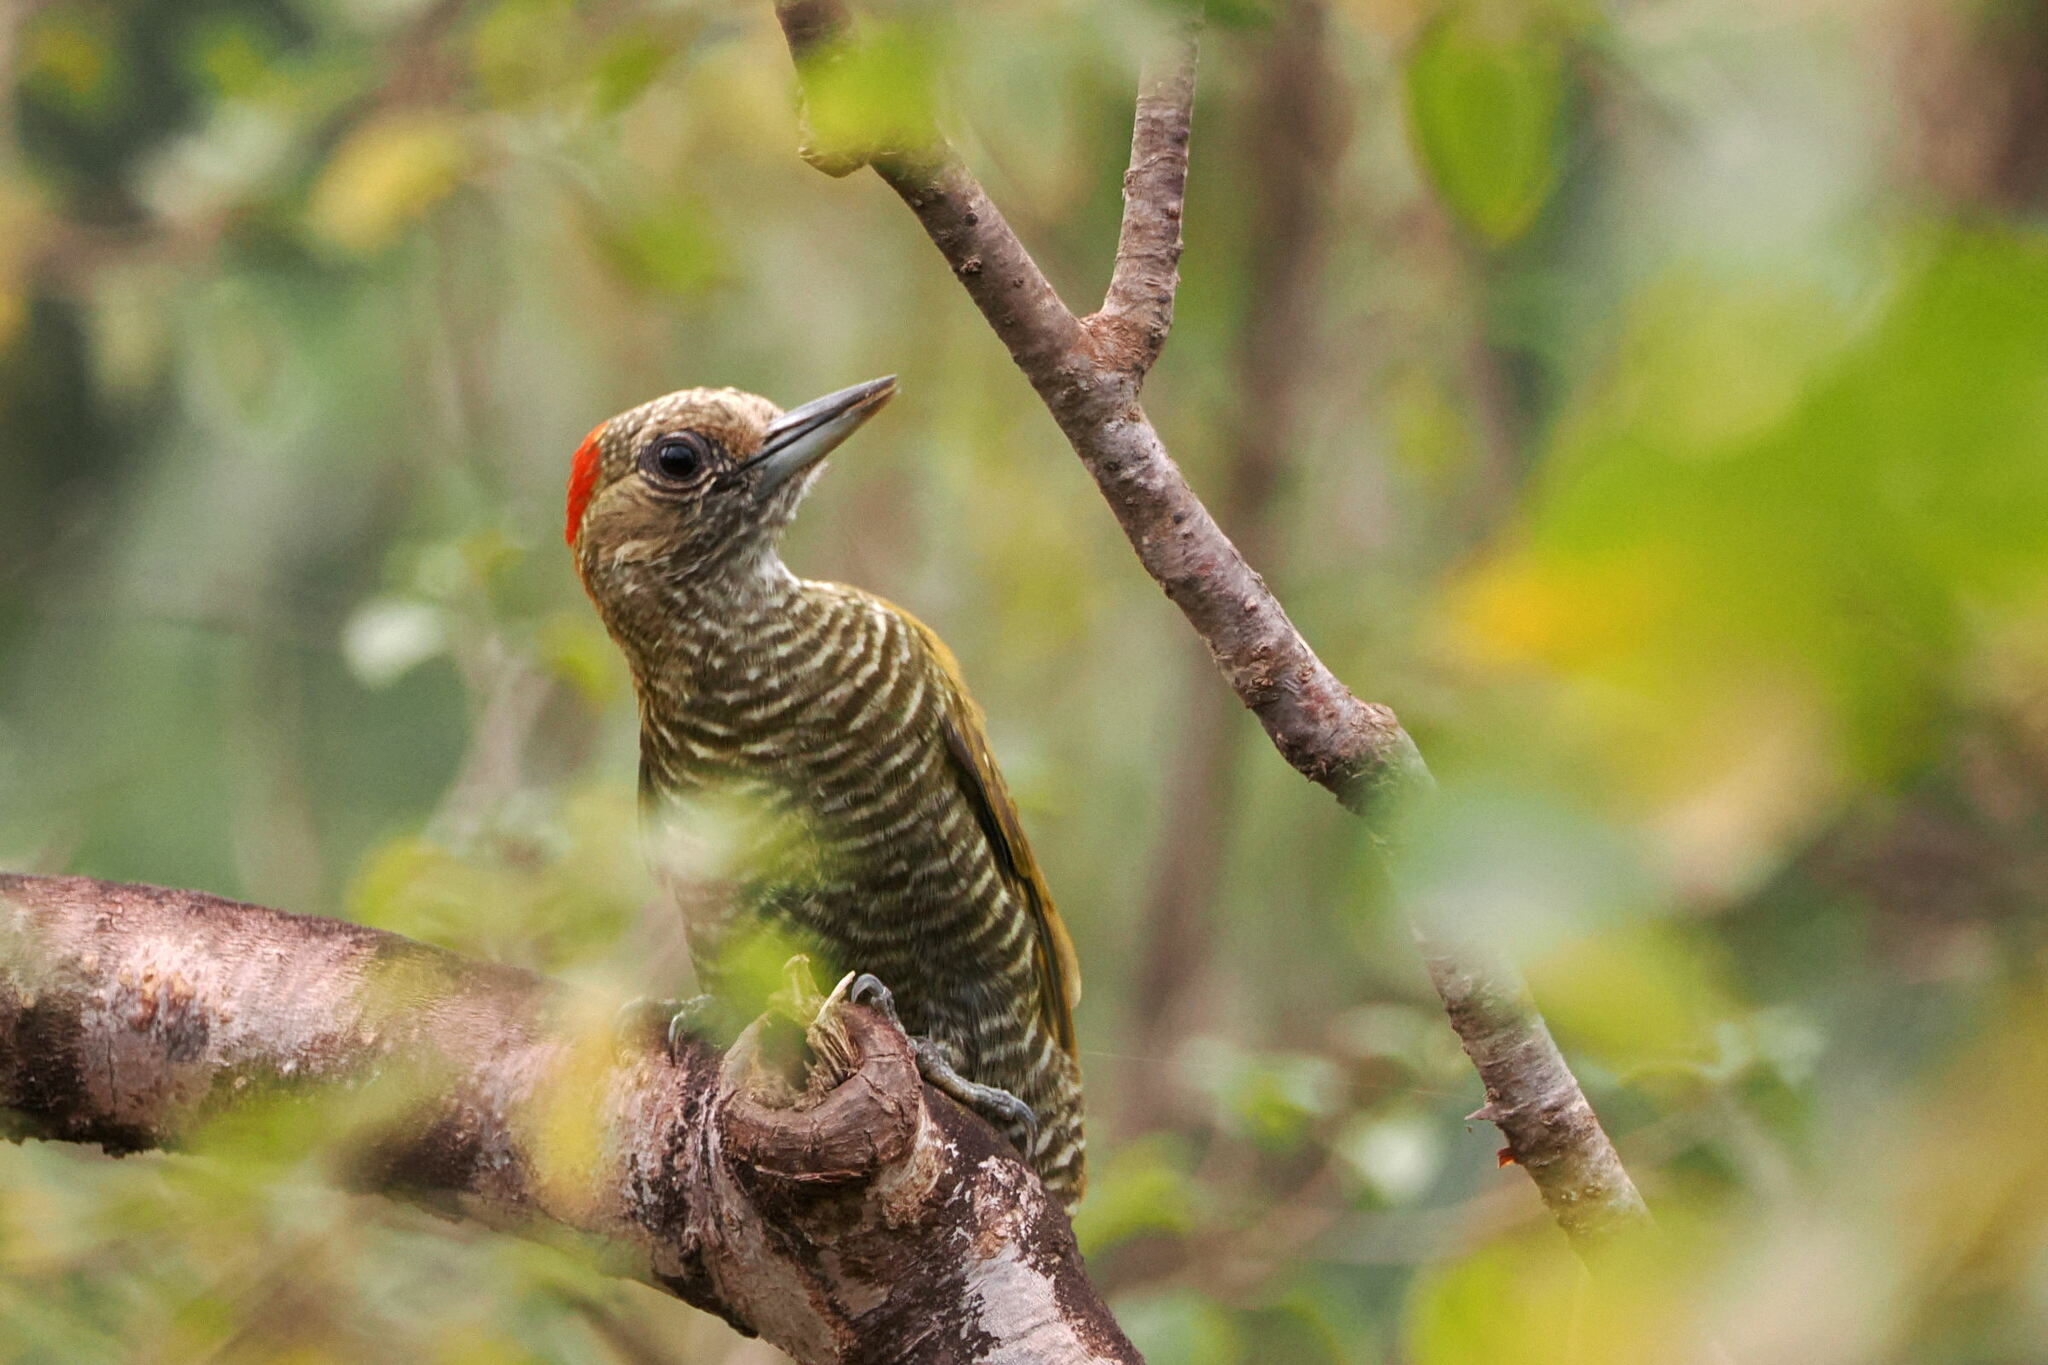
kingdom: Animalia
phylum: Chordata
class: Aves
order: Piciformes
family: Picidae
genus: Veniliornis
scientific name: Veniliornis passerinus
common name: Little woodpecker
